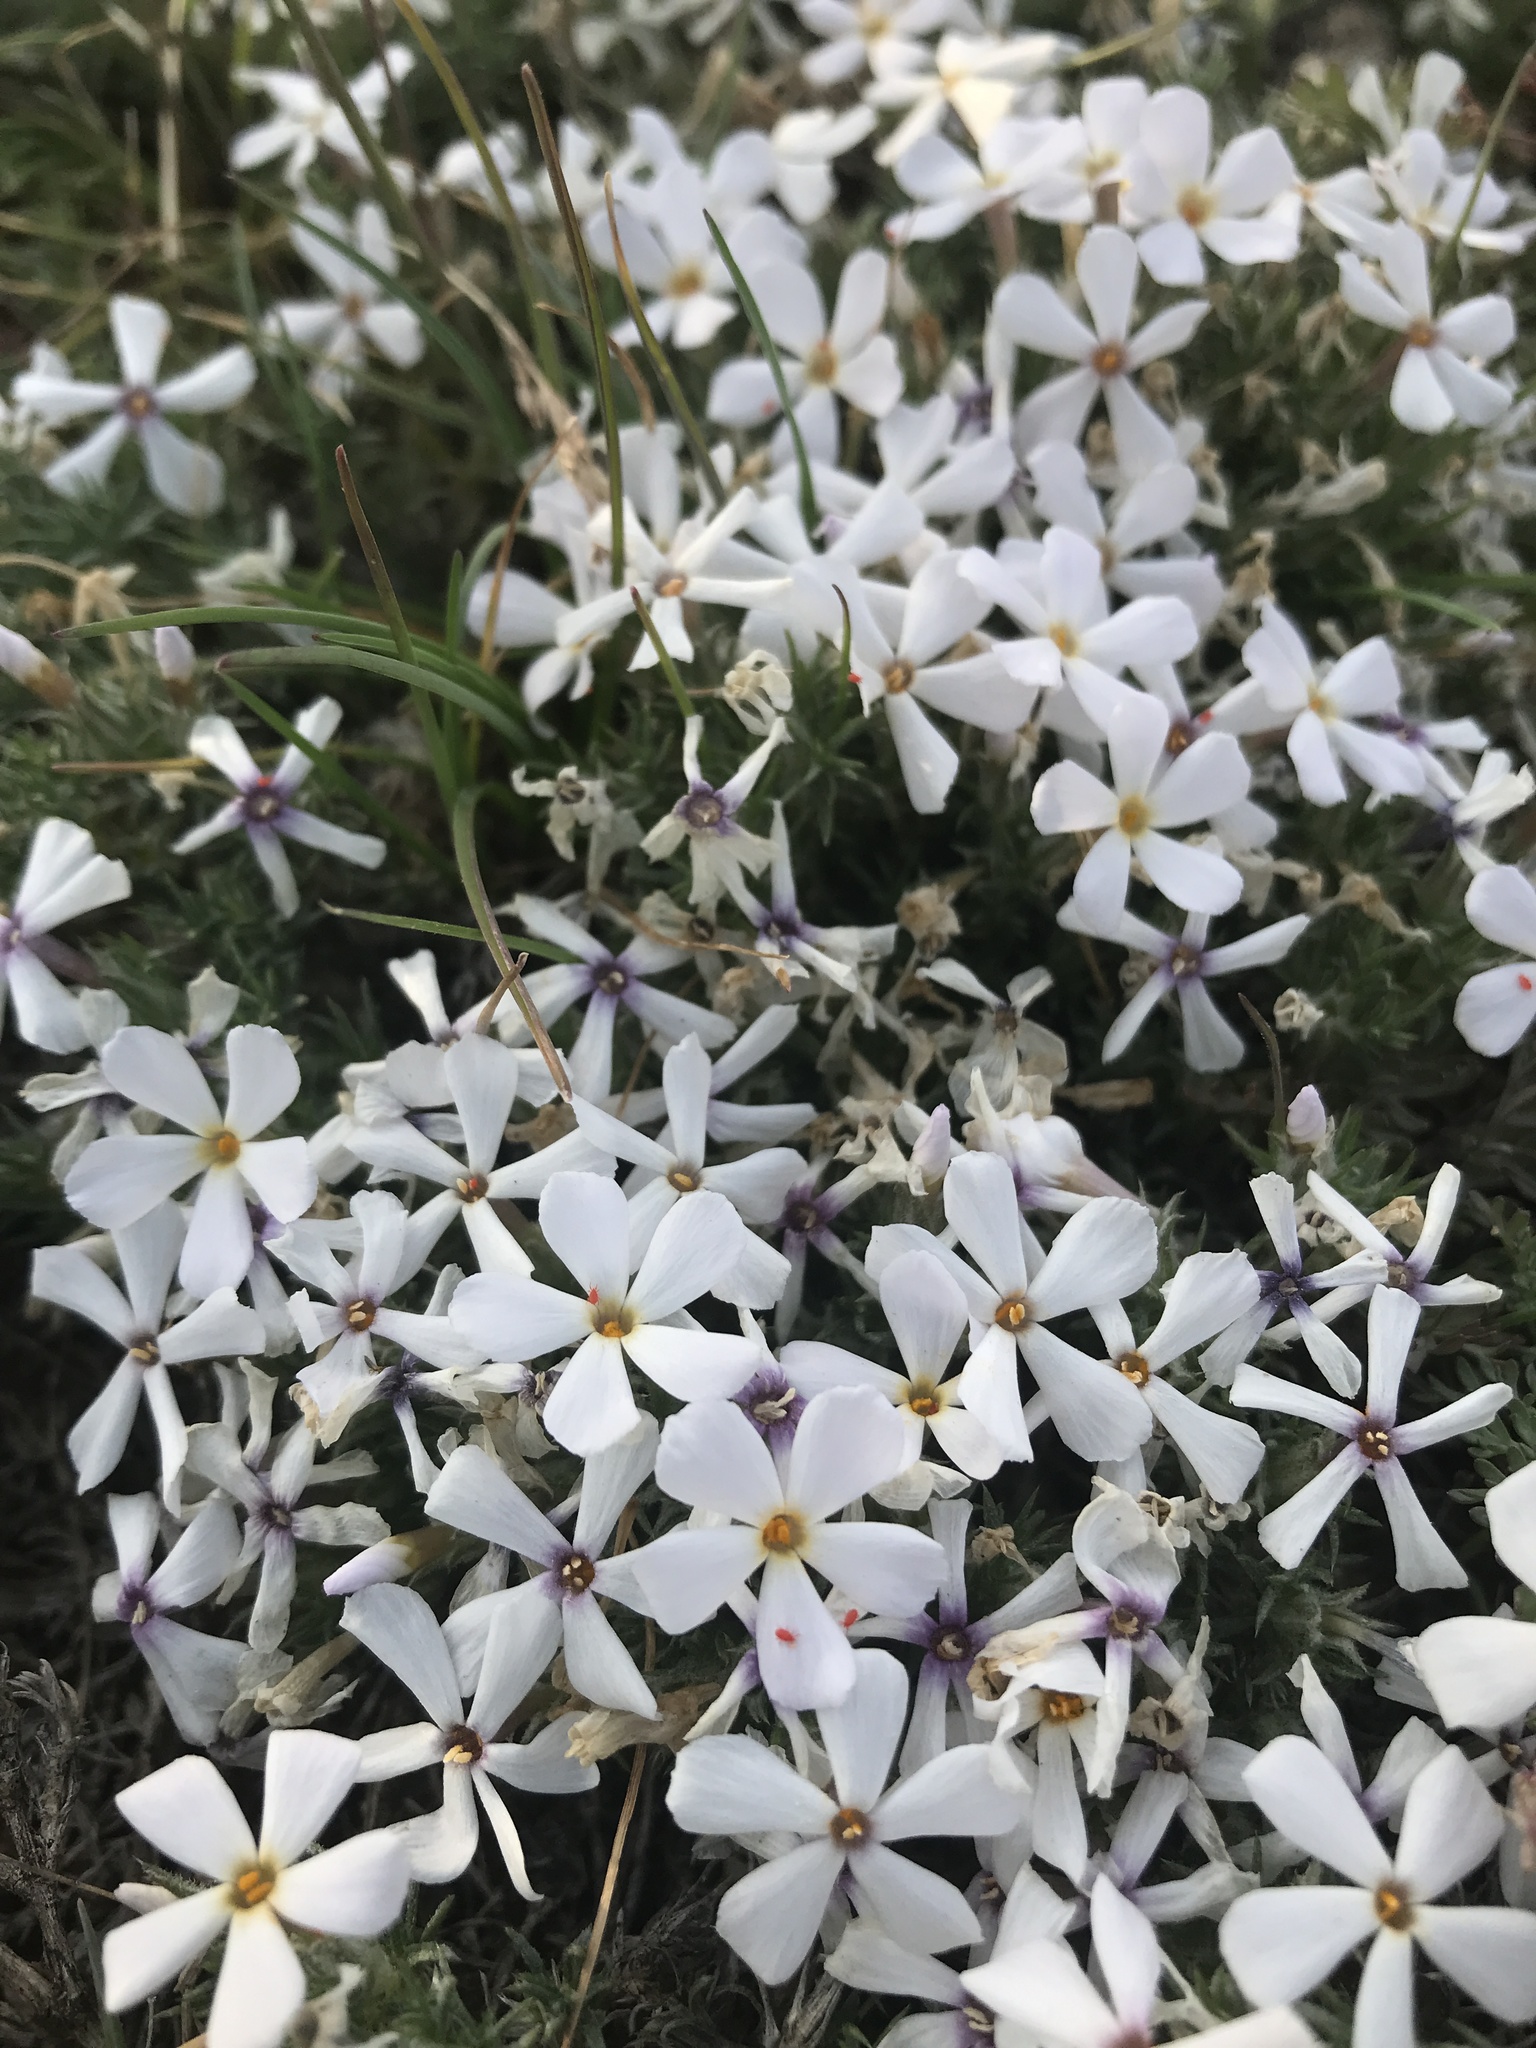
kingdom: Plantae
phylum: Tracheophyta
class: Magnoliopsida
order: Ericales
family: Polemoniaceae
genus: Phlox
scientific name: Phlox hoodii
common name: Moss phlox
